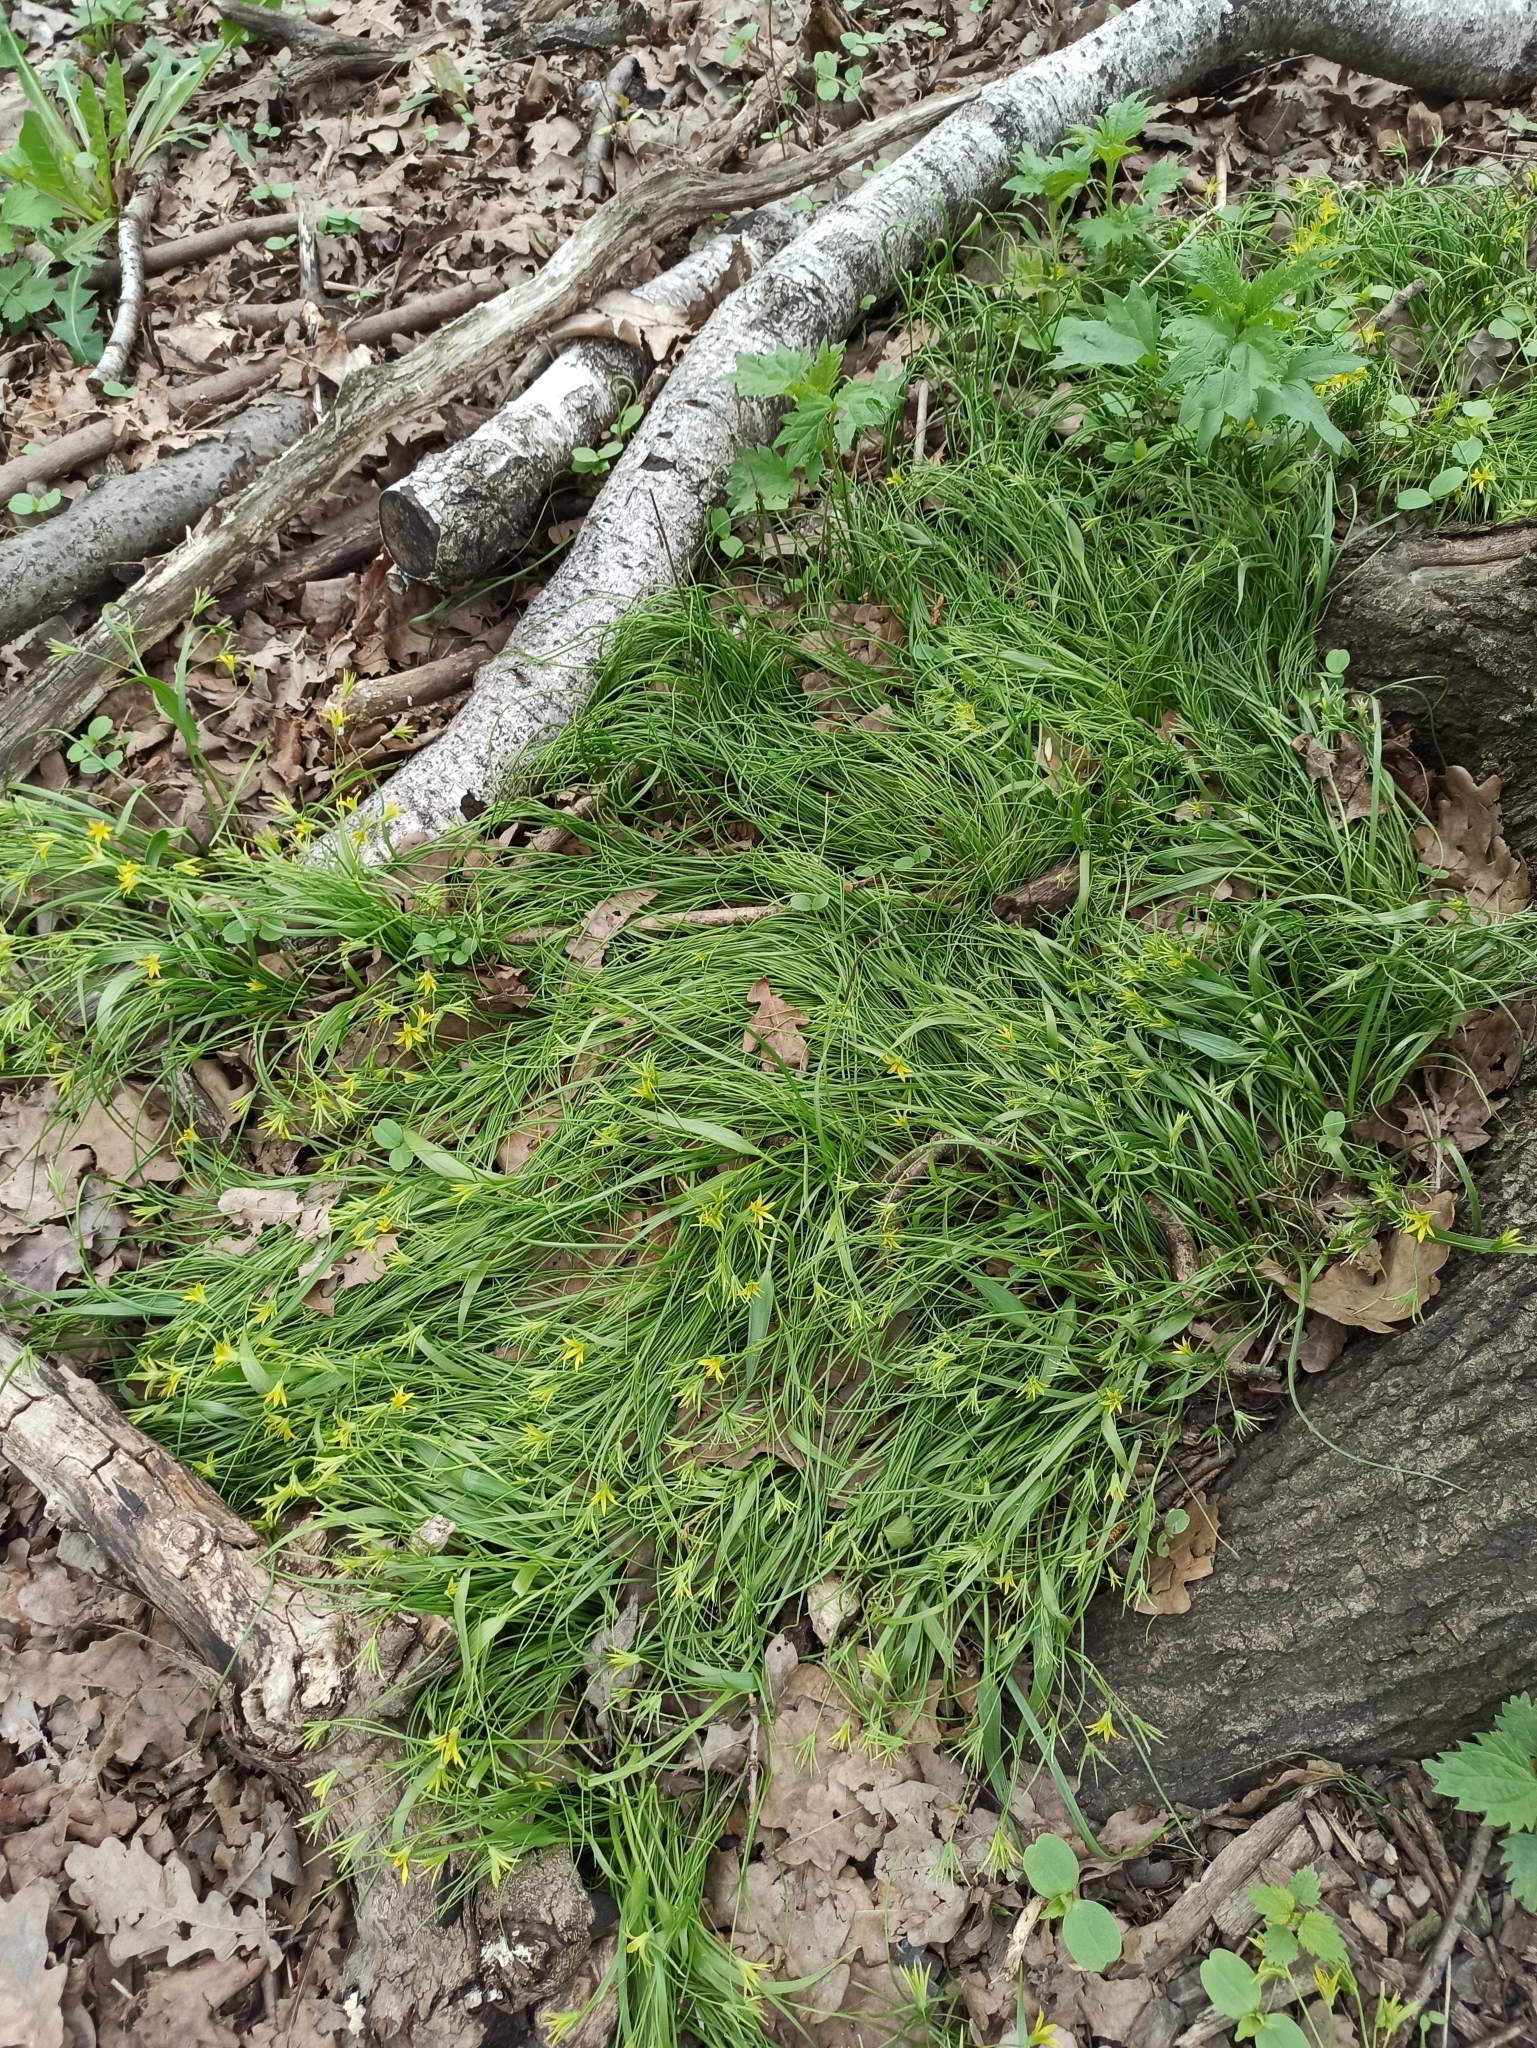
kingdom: Plantae
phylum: Tracheophyta
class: Liliopsida
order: Liliales
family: Liliaceae
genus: Gagea
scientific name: Gagea minima
